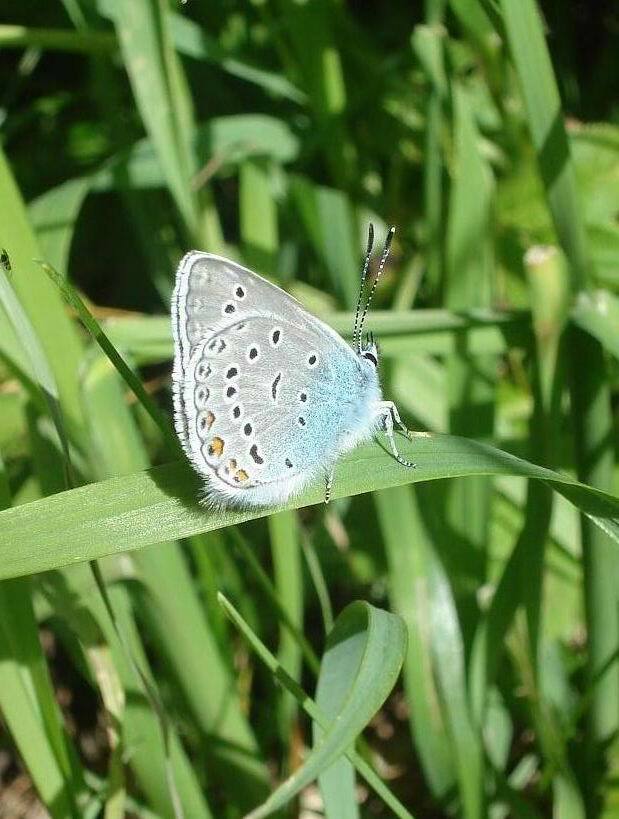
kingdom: Animalia
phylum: Arthropoda
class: Insecta
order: Lepidoptera
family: Lycaenidae
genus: Plebejus
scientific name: Plebejus amanda
